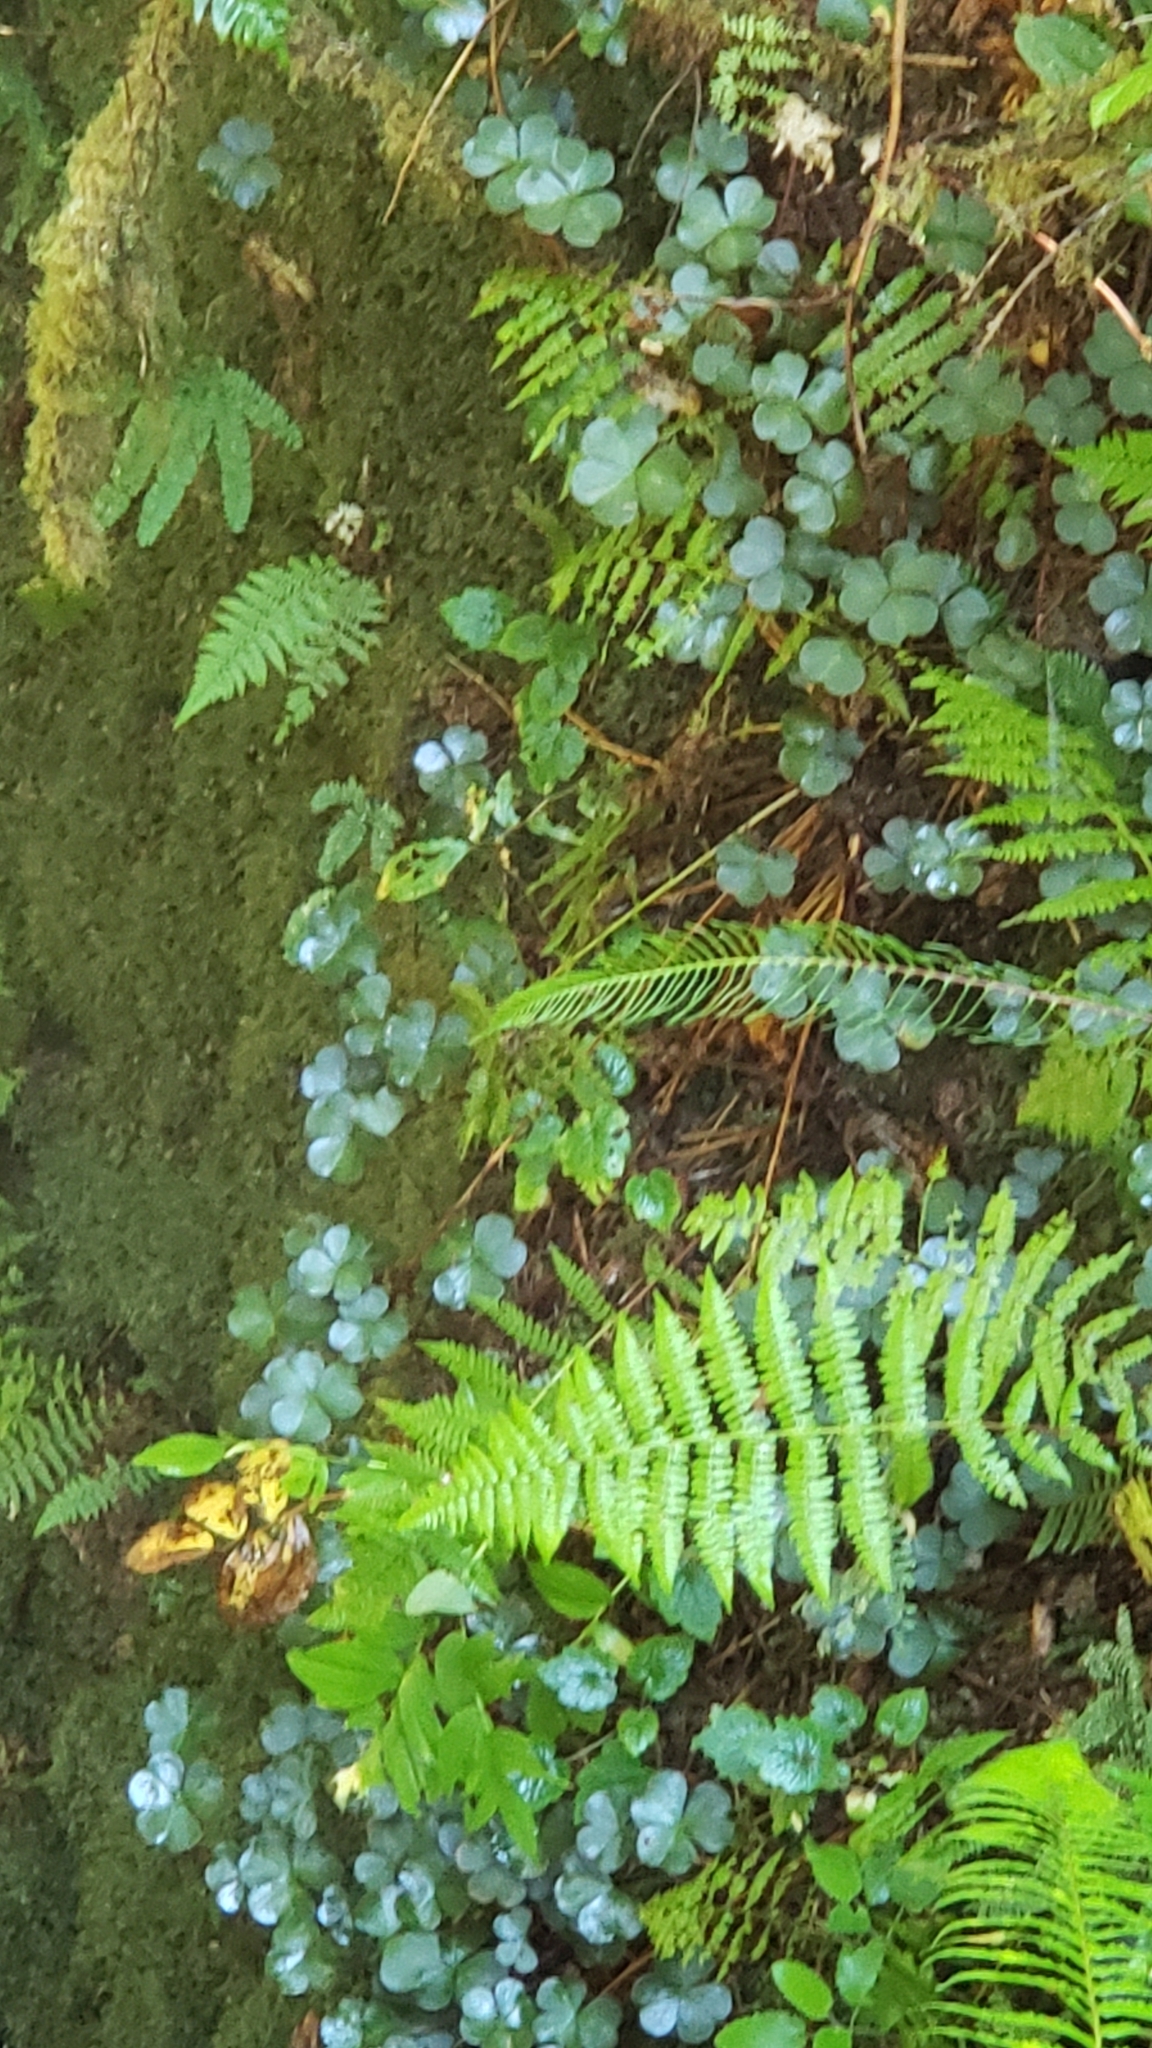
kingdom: Plantae
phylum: Tracheophyta
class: Magnoliopsida
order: Oxalidales
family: Oxalidaceae
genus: Oxalis
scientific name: Oxalis oregana
